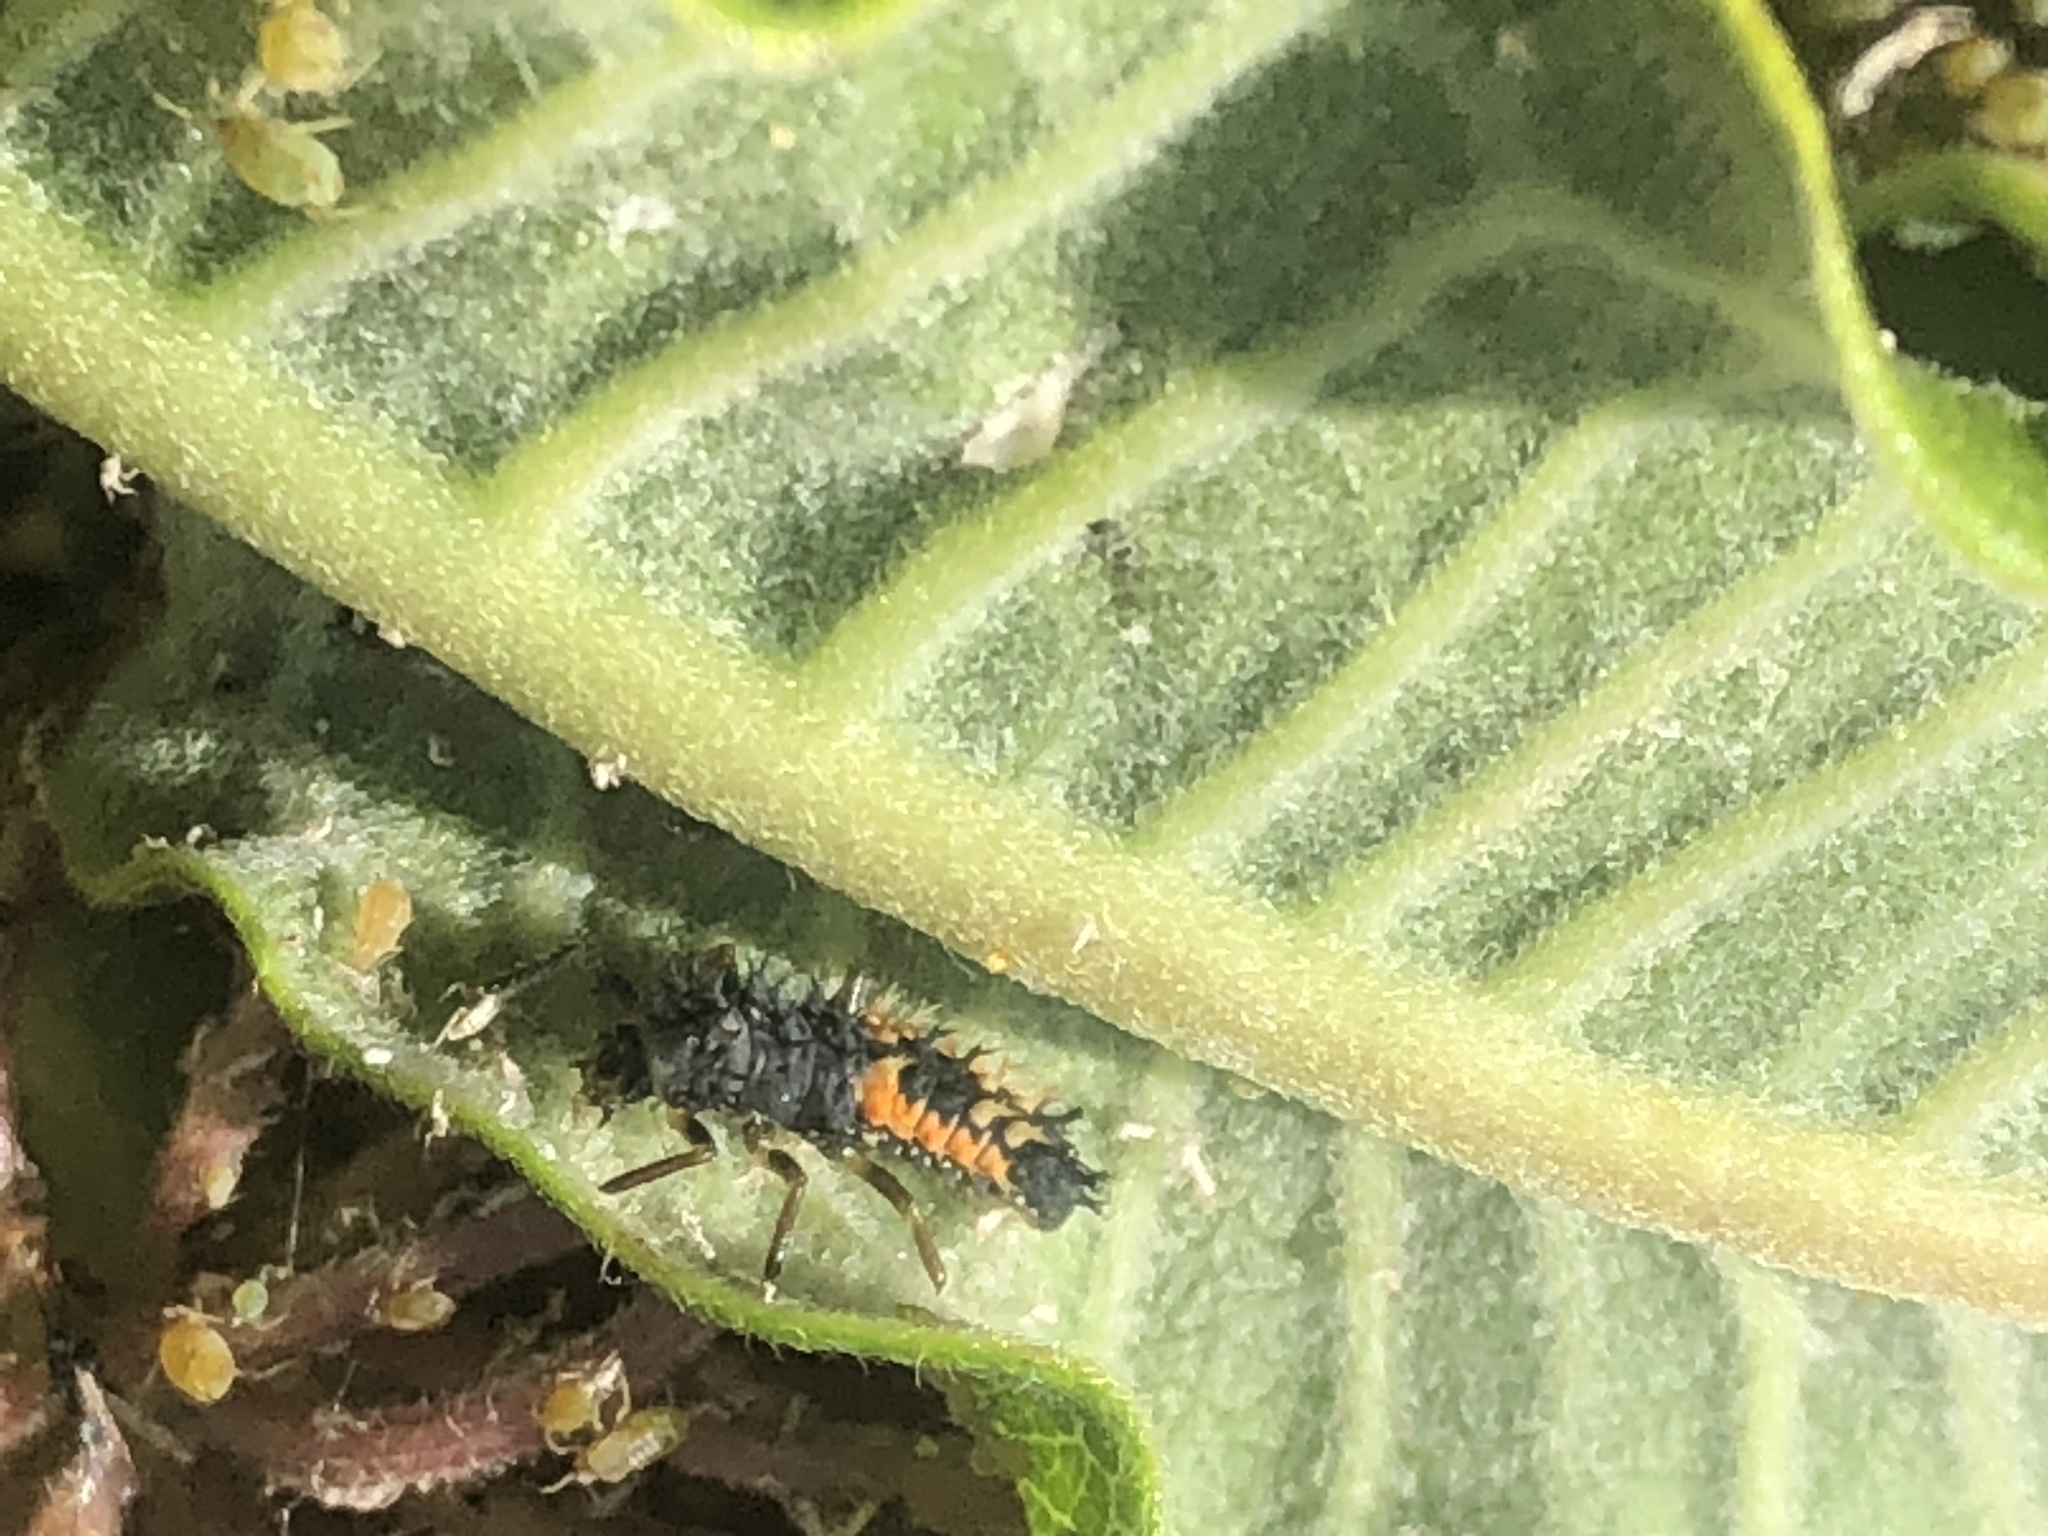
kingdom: Animalia
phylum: Arthropoda
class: Insecta
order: Coleoptera
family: Coccinellidae
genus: Harmonia
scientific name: Harmonia axyridis
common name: Harlequin ladybird
